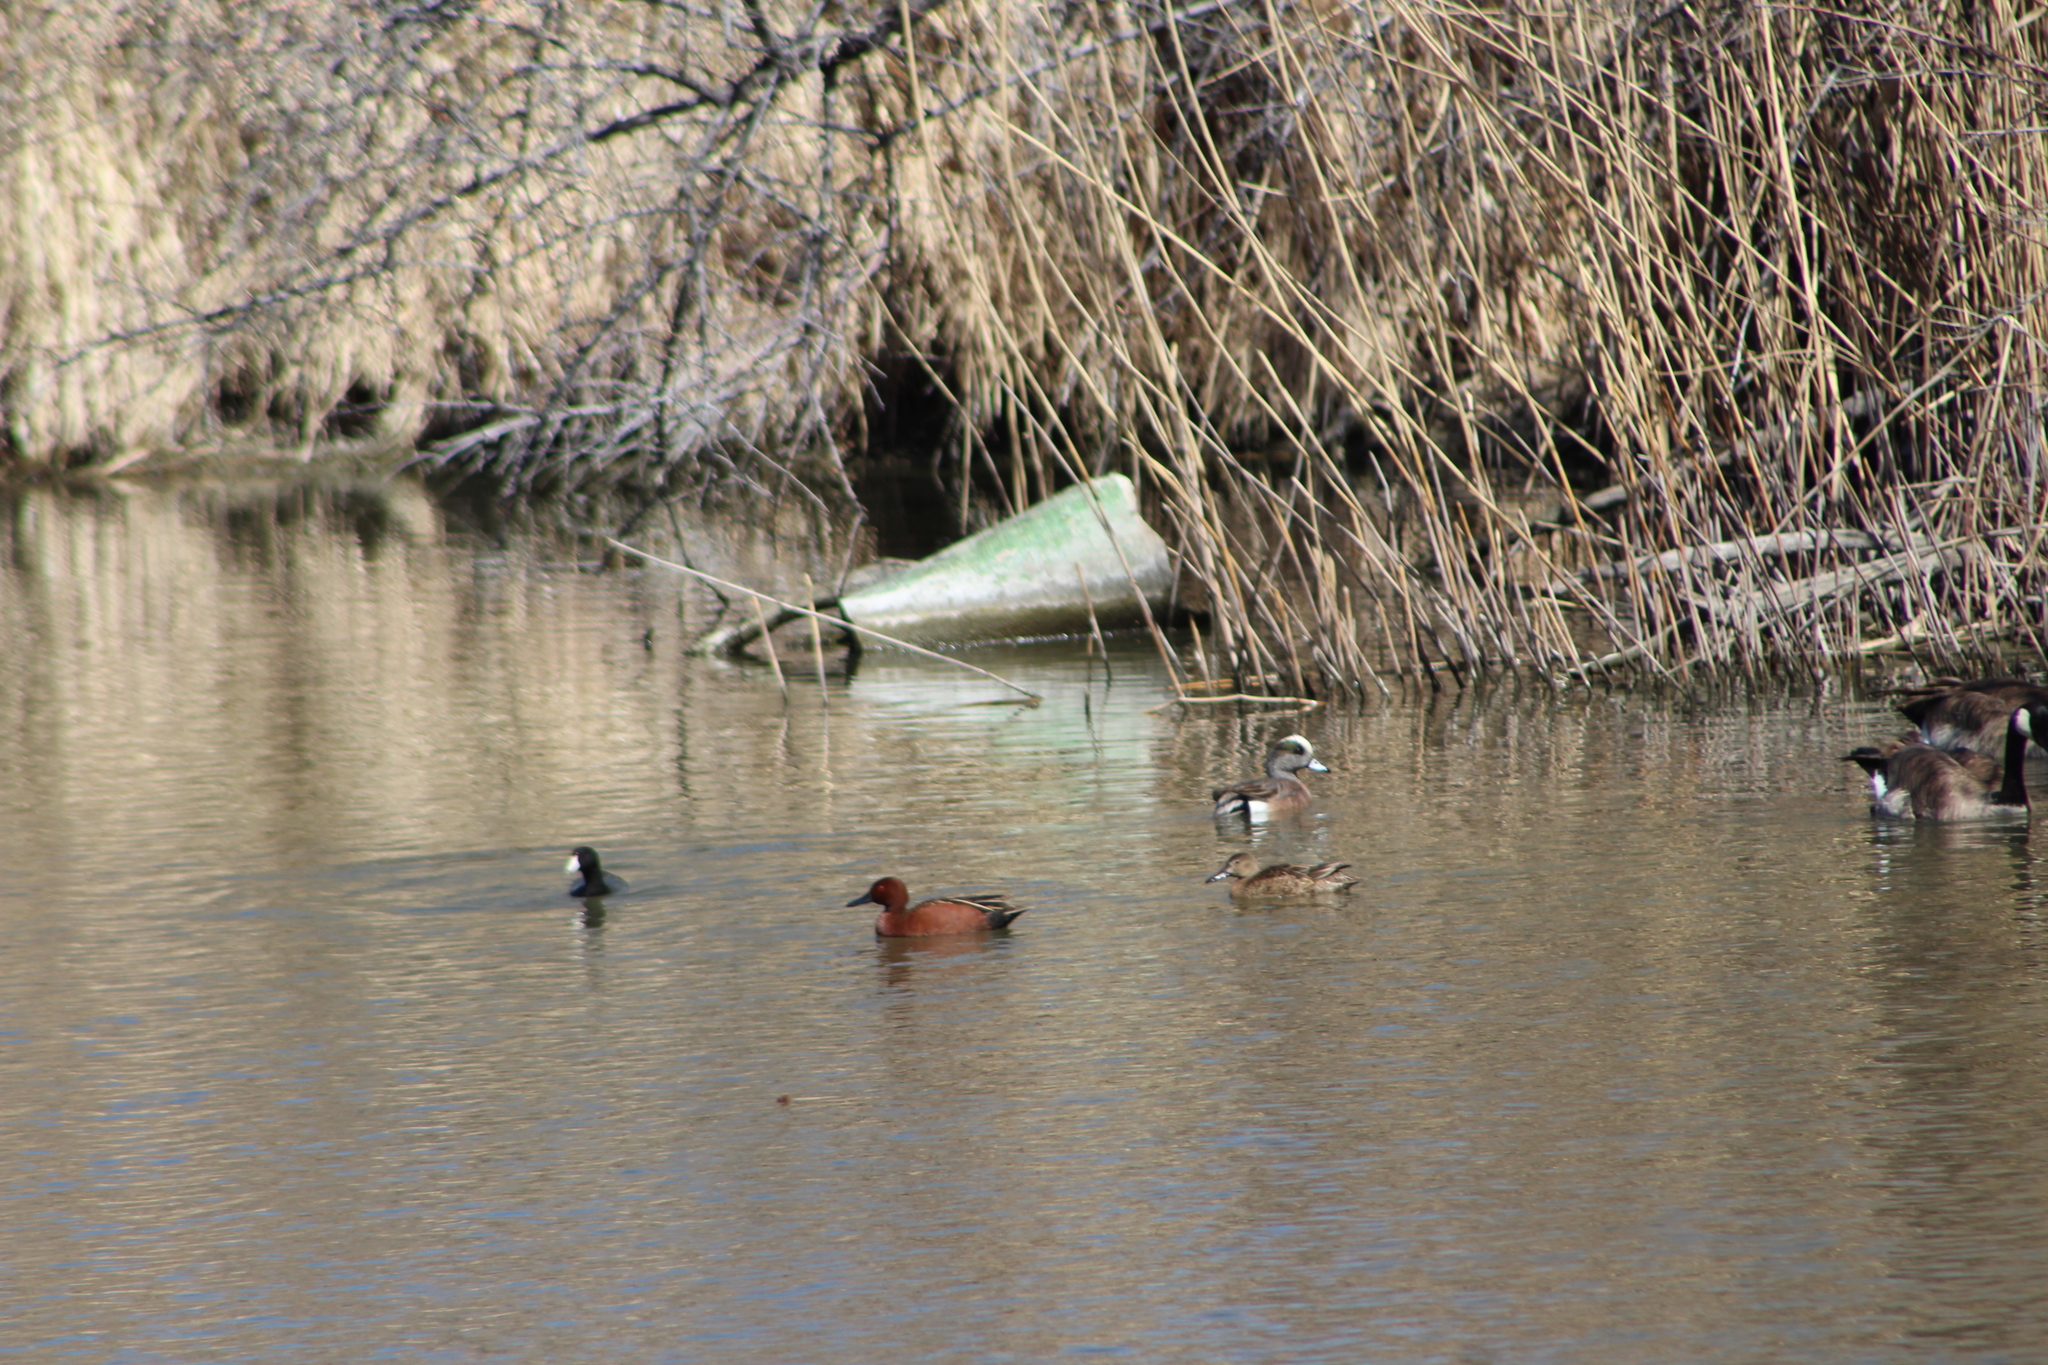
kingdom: Animalia
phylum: Chordata
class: Aves
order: Anseriformes
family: Anatidae
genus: Spatula
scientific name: Spatula cyanoptera
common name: Cinnamon teal
